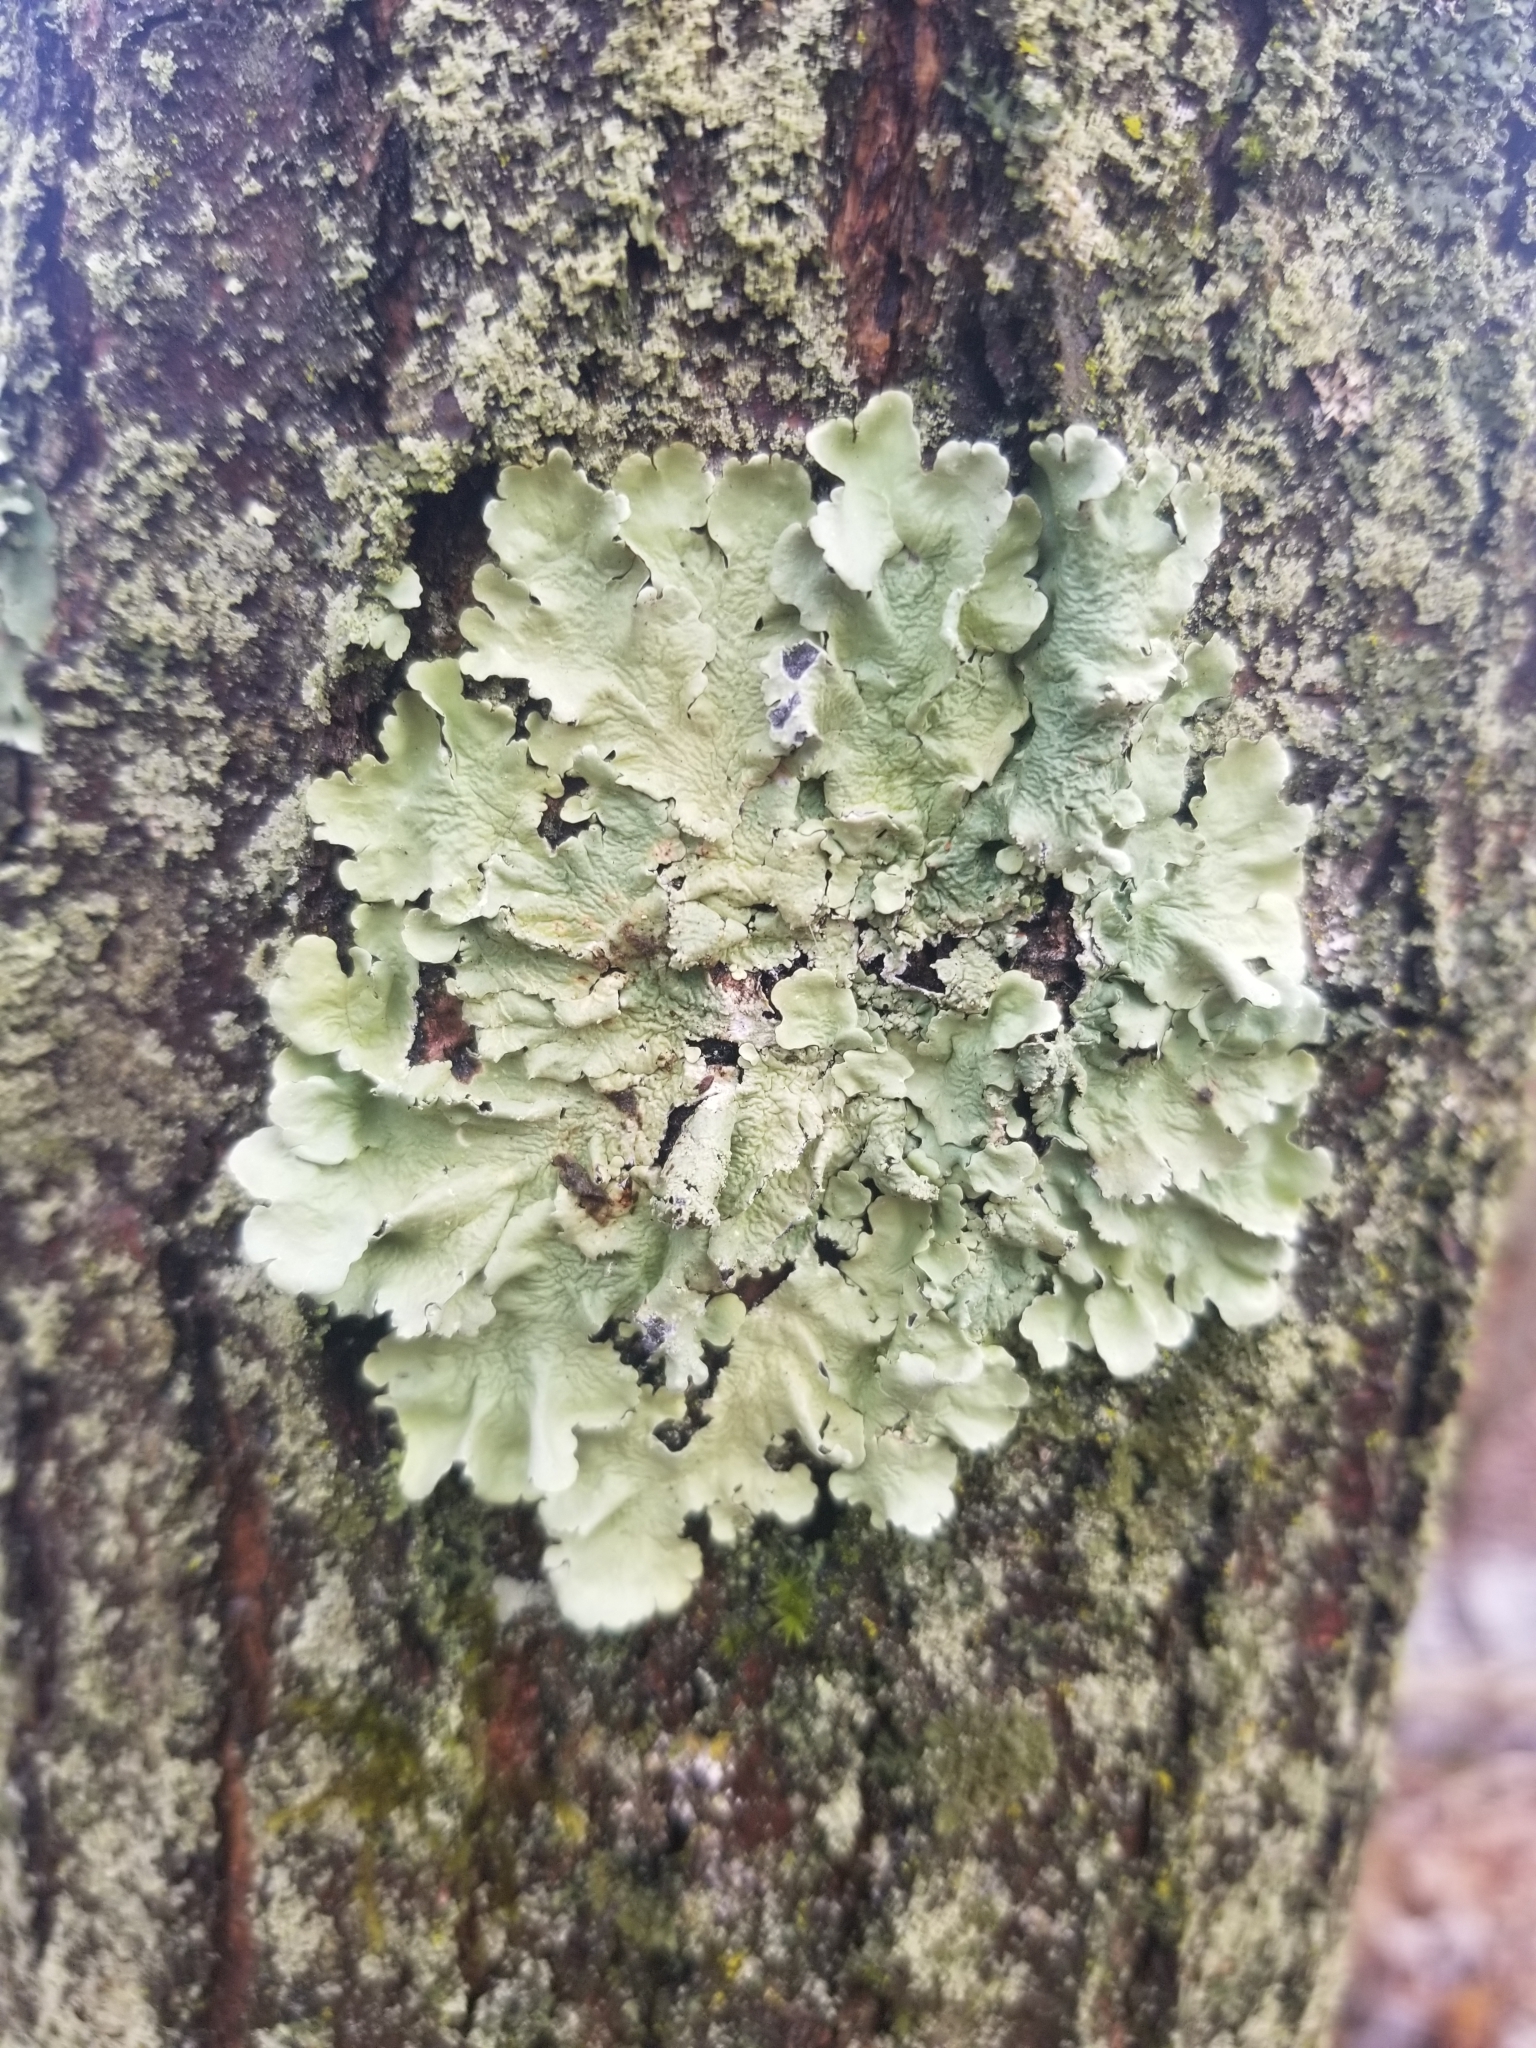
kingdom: Fungi
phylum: Ascomycota
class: Lecanoromycetes
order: Lecanorales
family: Parmeliaceae
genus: Flavoparmelia
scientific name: Flavoparmelia caperata
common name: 40-mile per hour lichen
